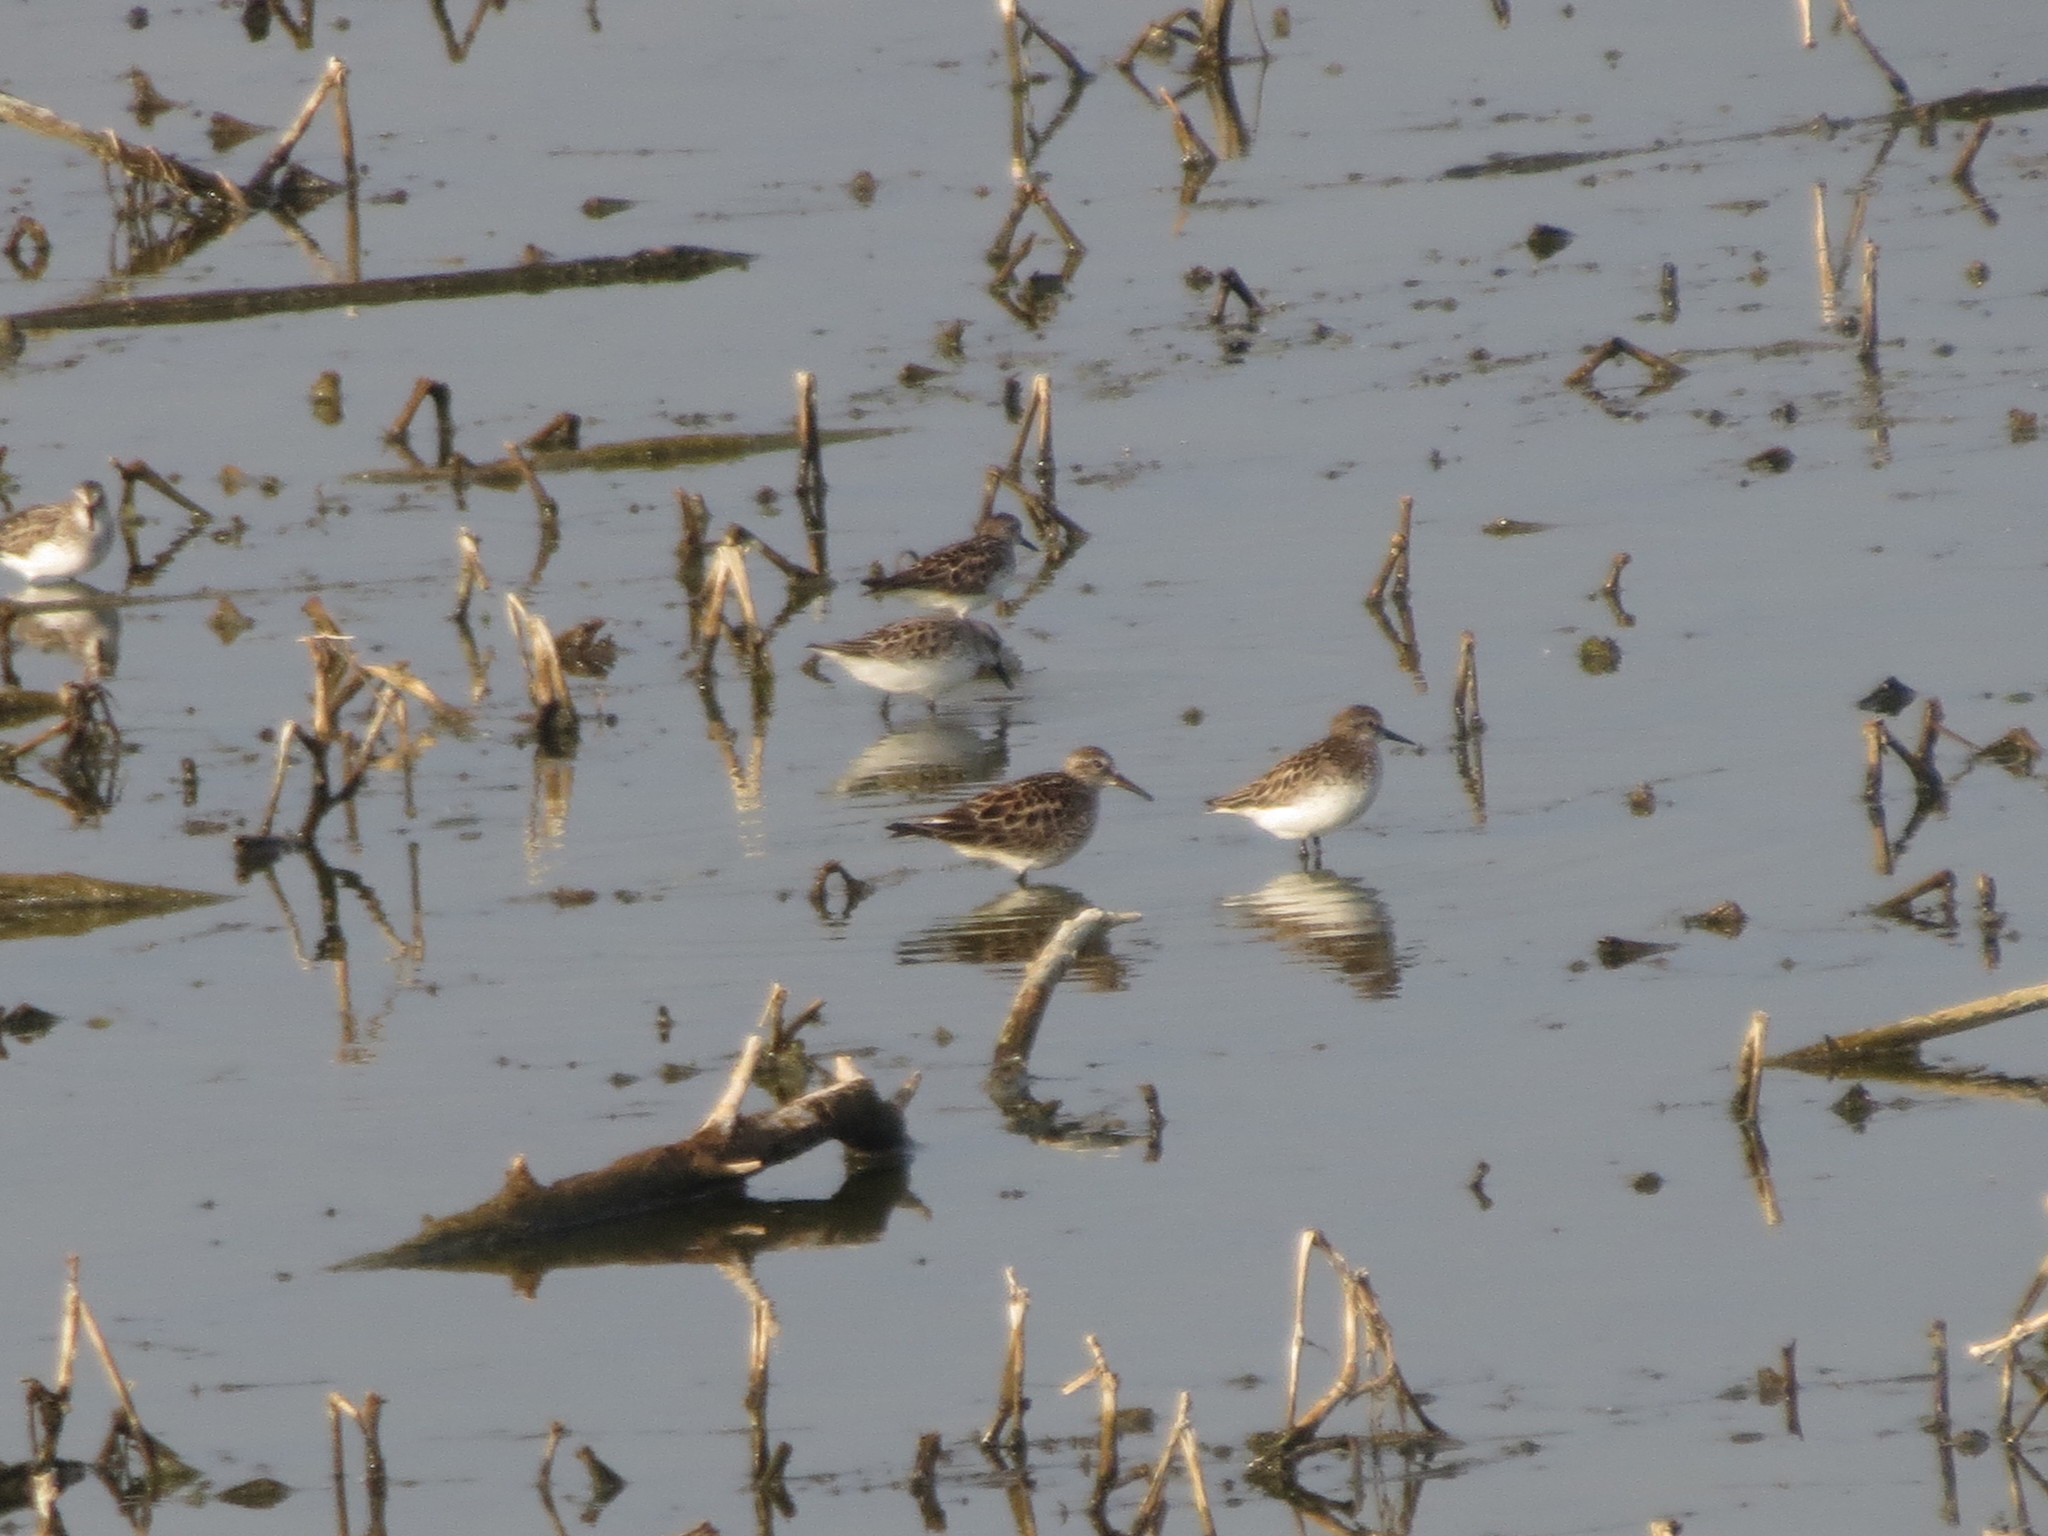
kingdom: Animalia
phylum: Chordata
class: Aves
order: Charadriiformes
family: Scolopacidae
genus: Calidris
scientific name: Calidris fuscicollis
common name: White-rumped sandpiper
